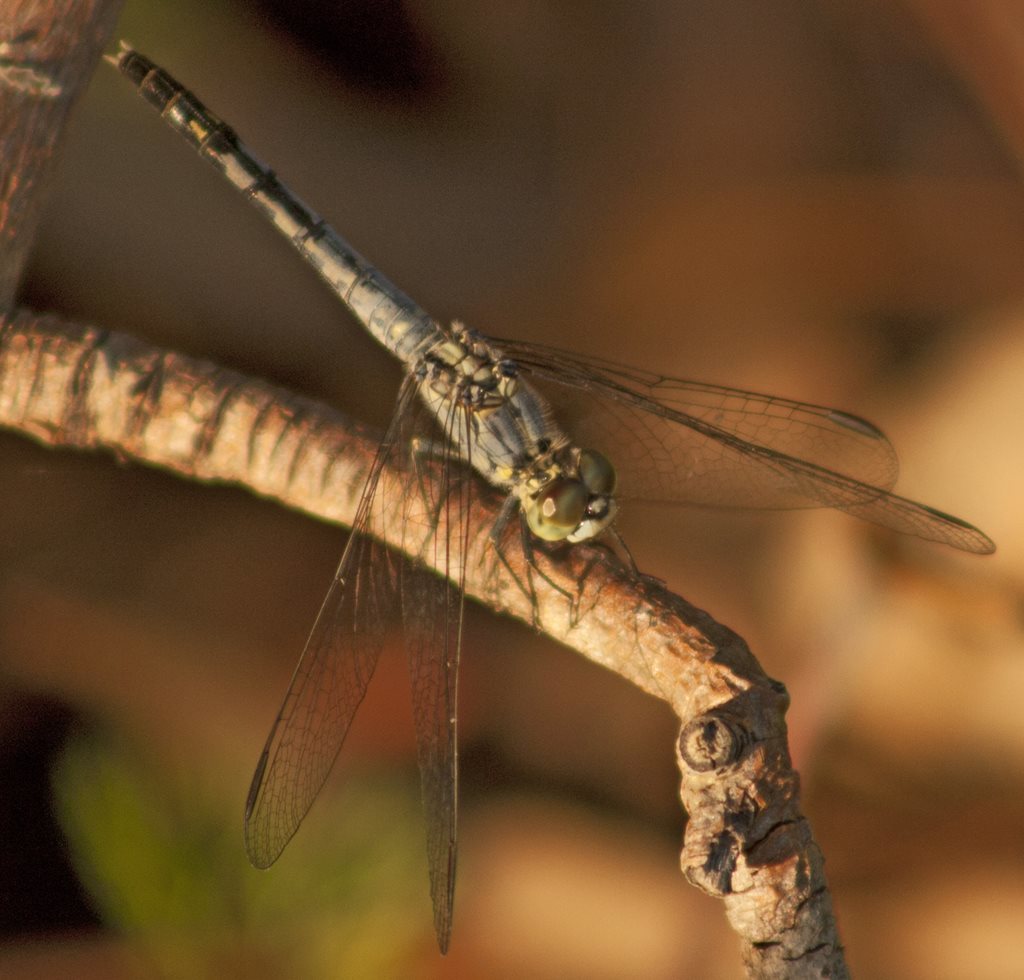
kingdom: Animalia
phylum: Arthropoda
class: Insecta
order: Odonata
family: Libellulidae
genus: Diplacodes
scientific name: Diplacodes trivialis
